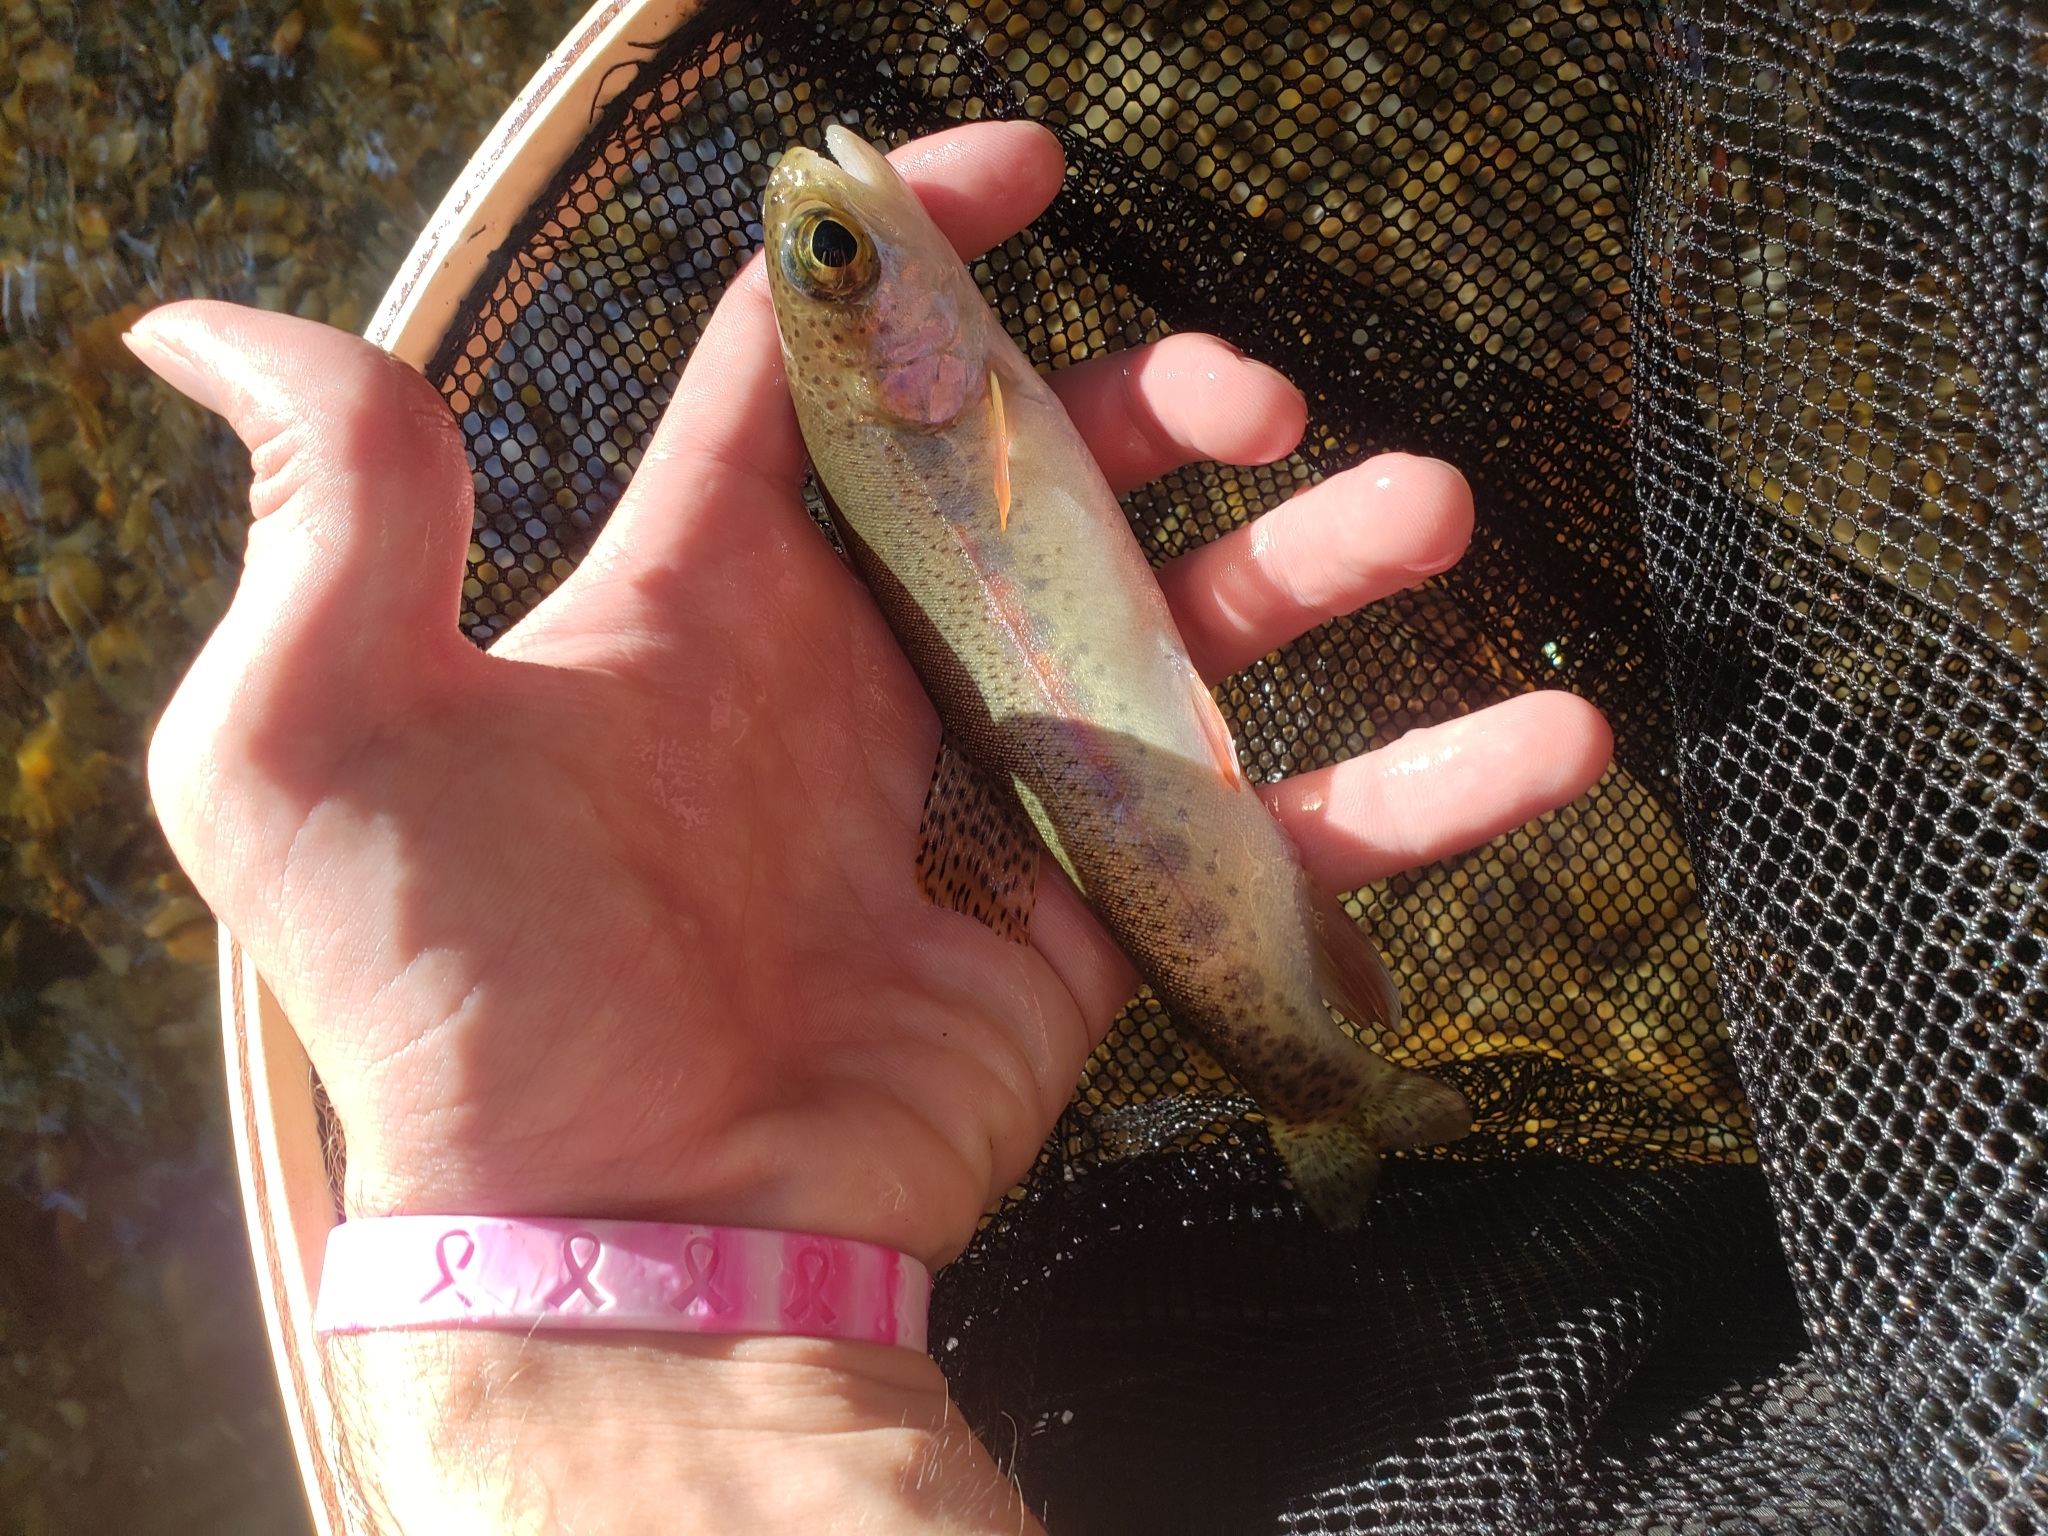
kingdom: Animalia
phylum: Chordata
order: Salmoniformes
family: Salmonidae
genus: Oncorhynchus
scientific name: Oncorhynchus mykiss
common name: Rainbow trout
